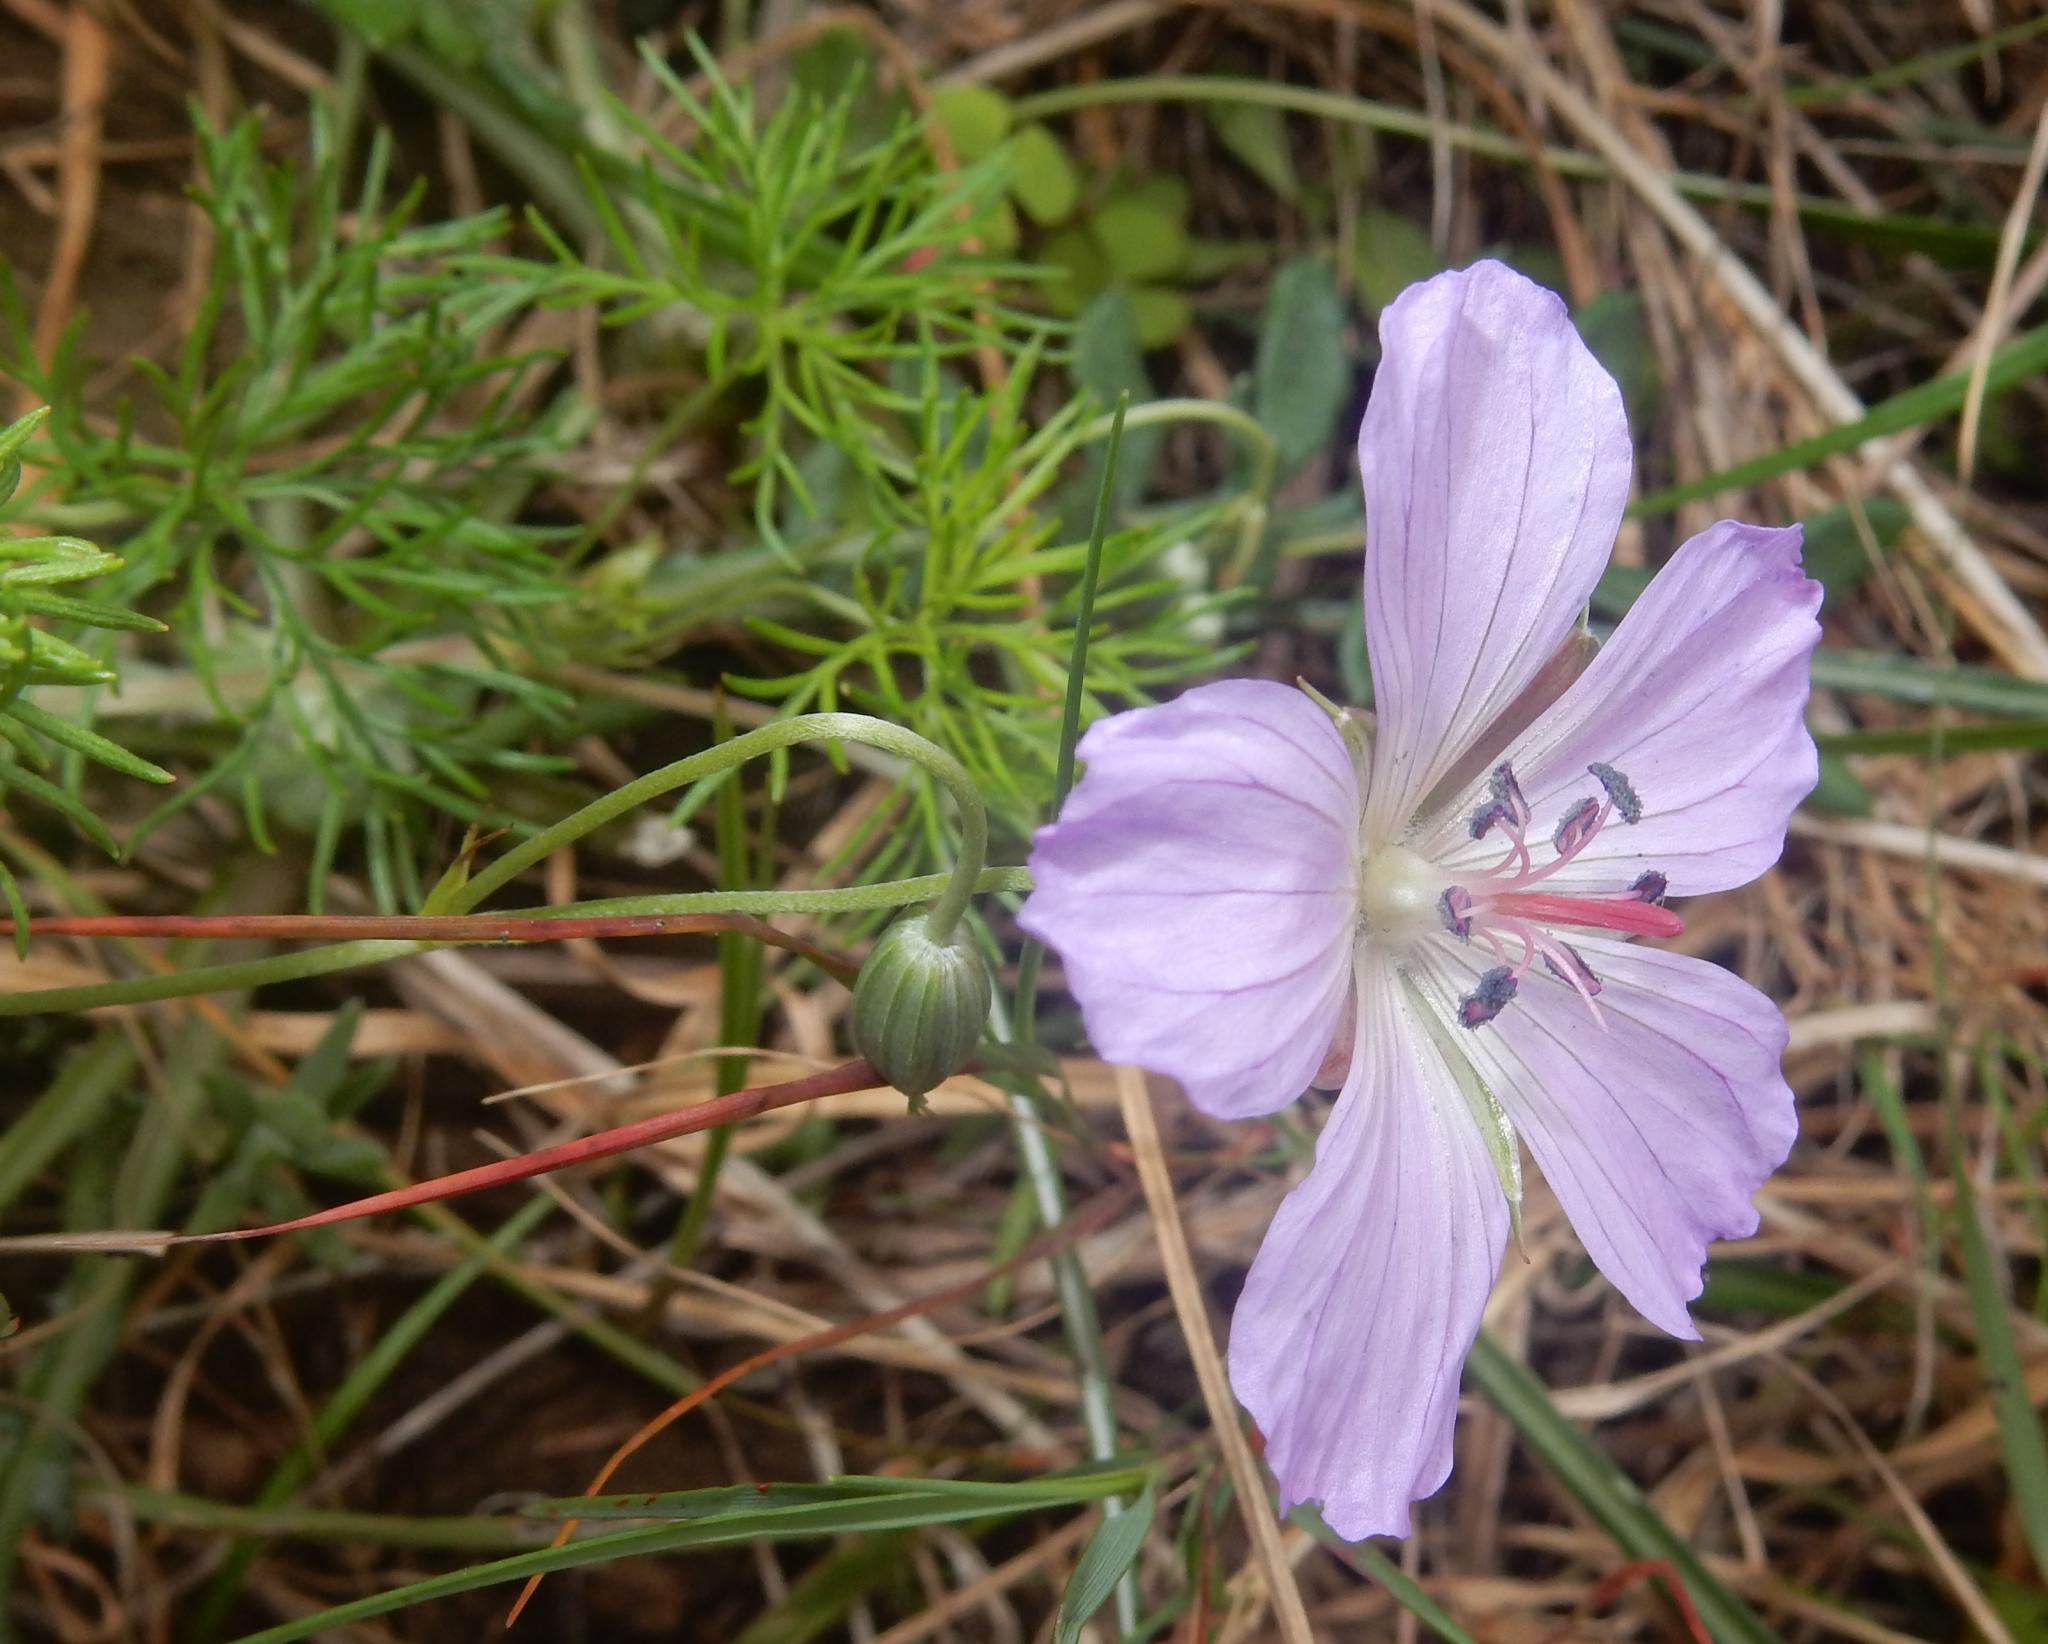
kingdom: Plantae
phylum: Tracheophyta
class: Magnoliopsida
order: Geraniales
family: Geraniaceae
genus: Geranium
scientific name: Geranium incanum
